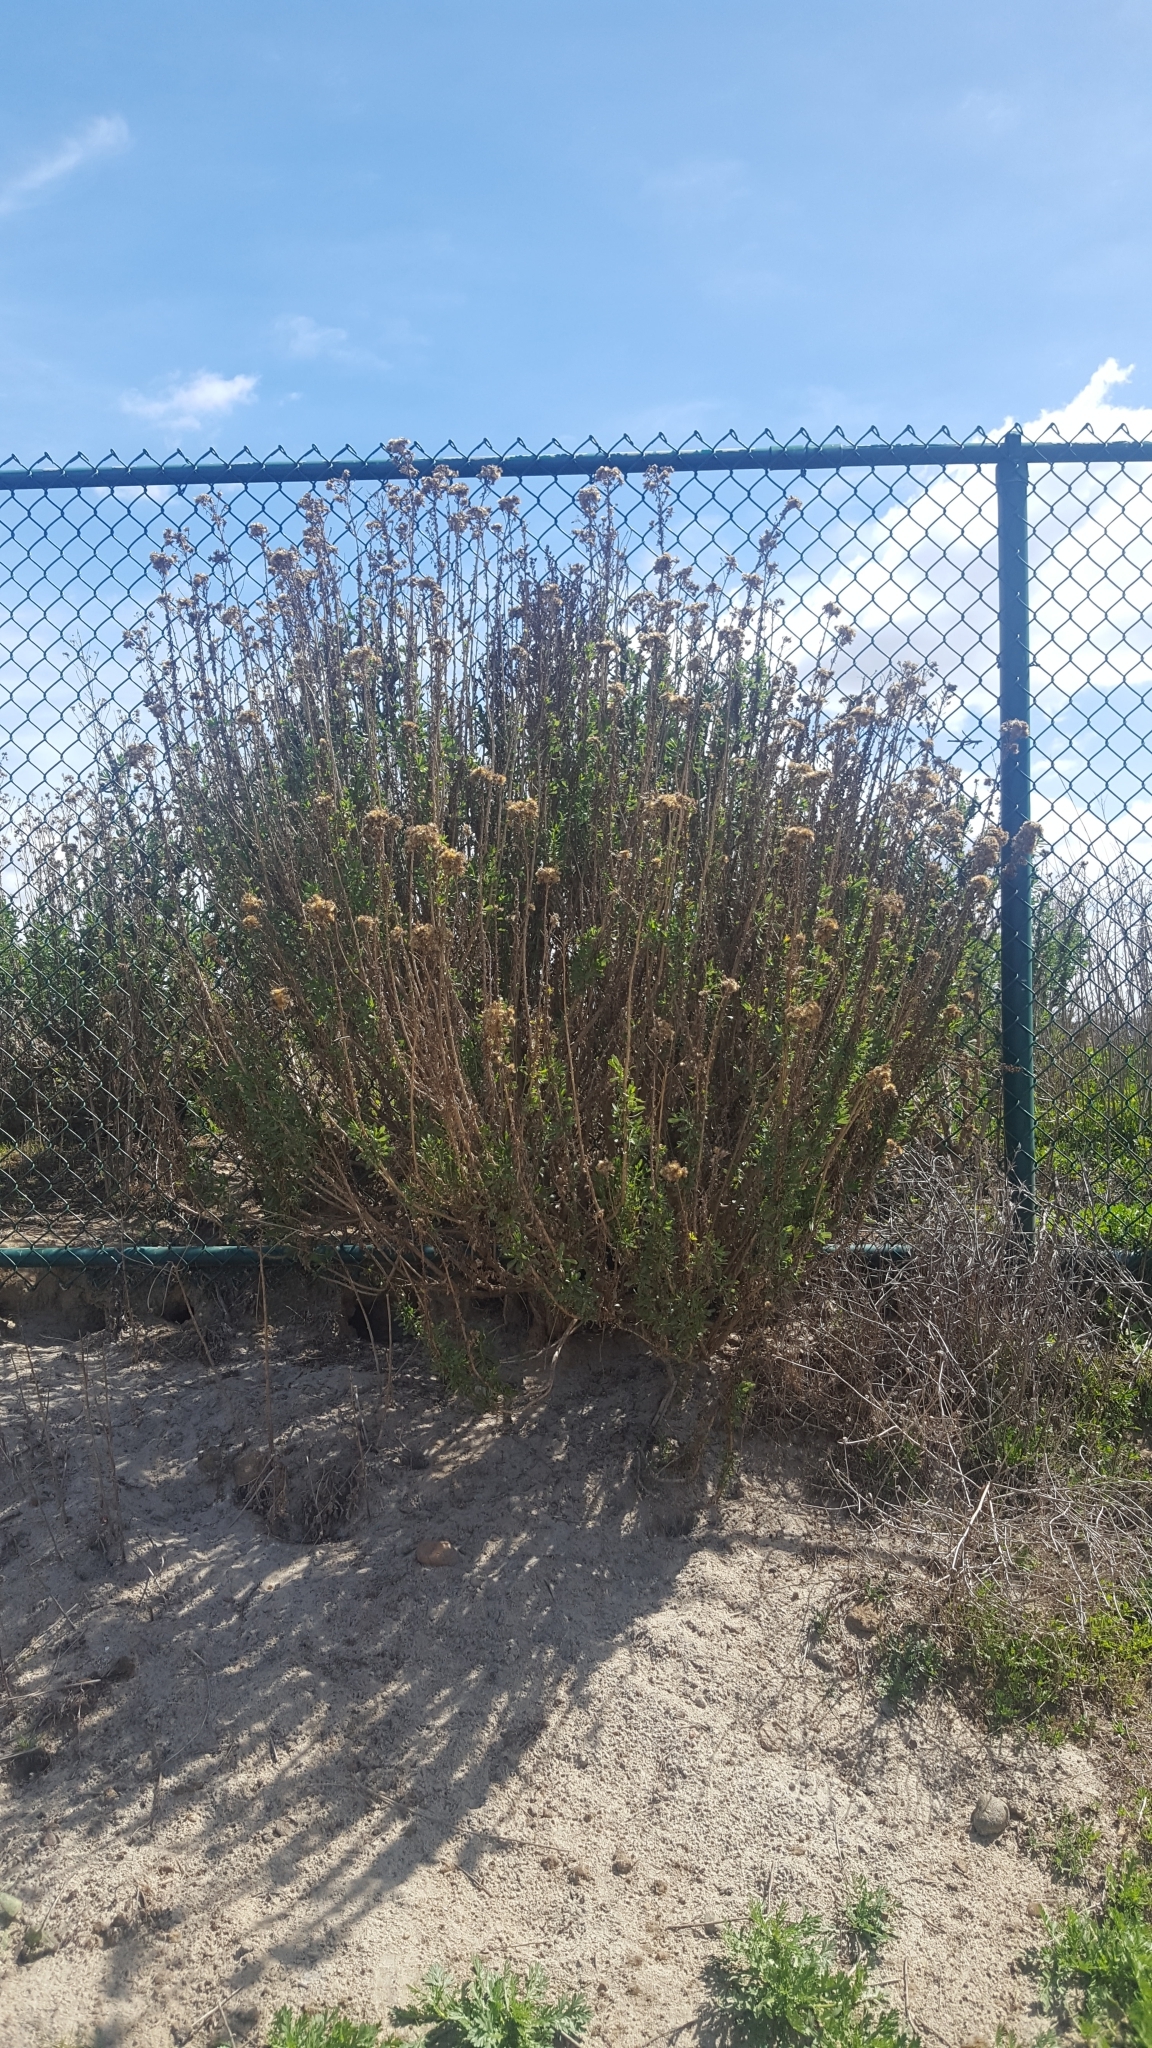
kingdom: Plantae
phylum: Tracheophyta
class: Magnoliopsida
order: Asterales
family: Asteraceae
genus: Isocoma
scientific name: Isocoma menziesii
